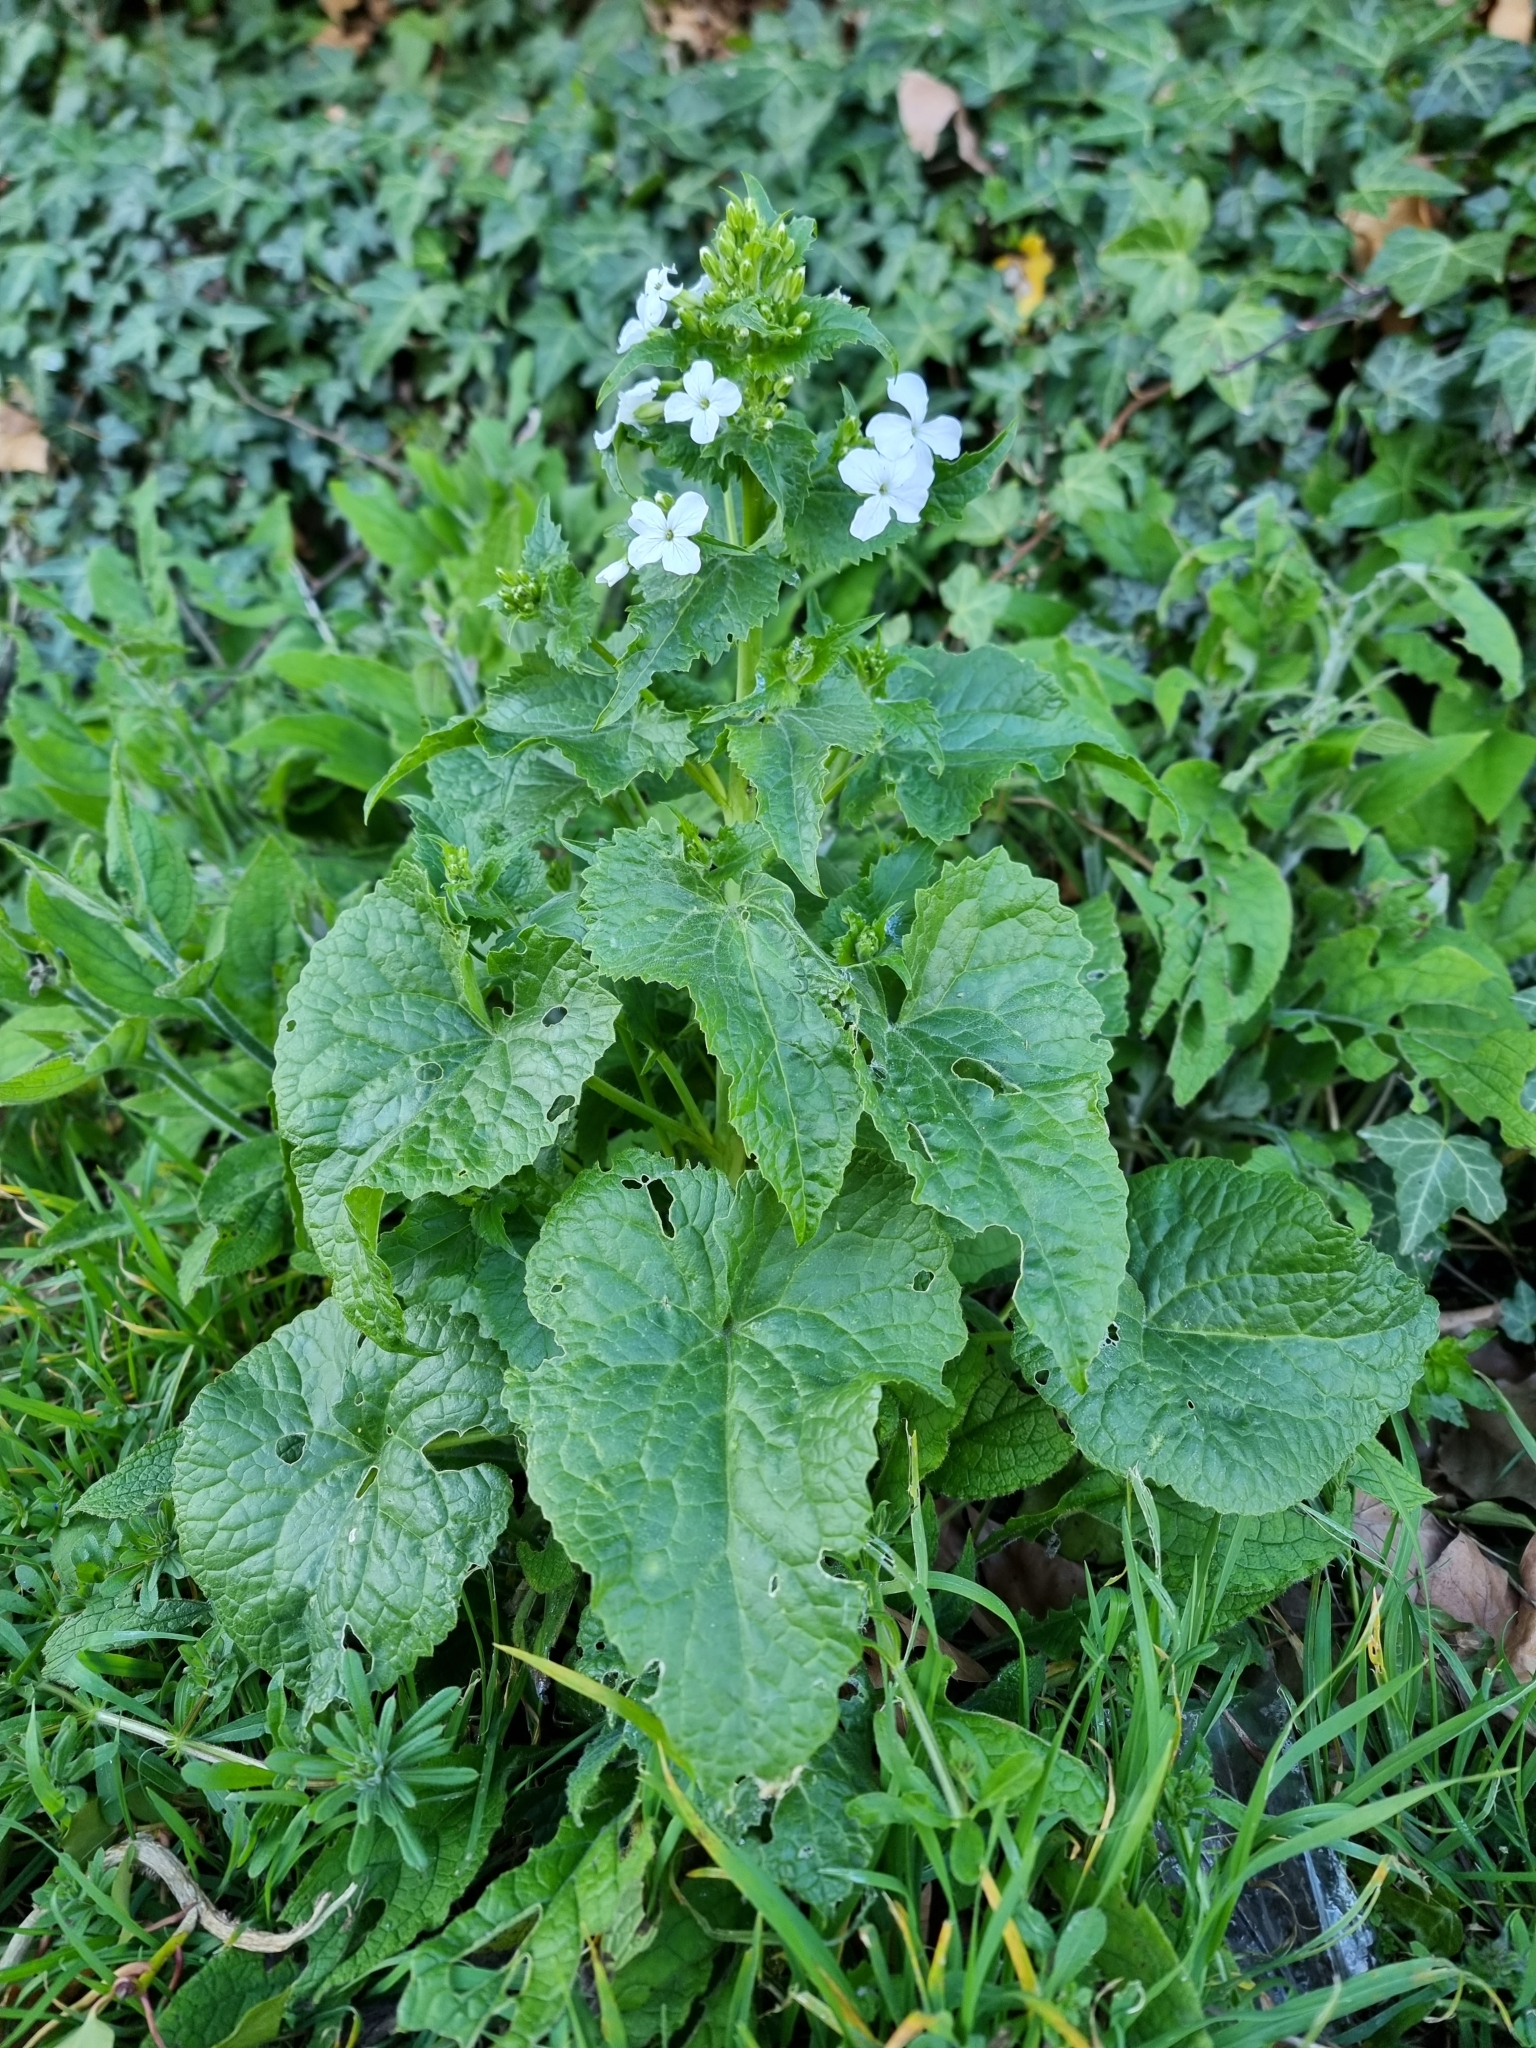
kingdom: Plantae
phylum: Tracheophyta
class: Magnoliopsida
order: Brassicales
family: Brassicaceae
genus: Lunaria
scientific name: Lunaria annua
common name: Honesty
